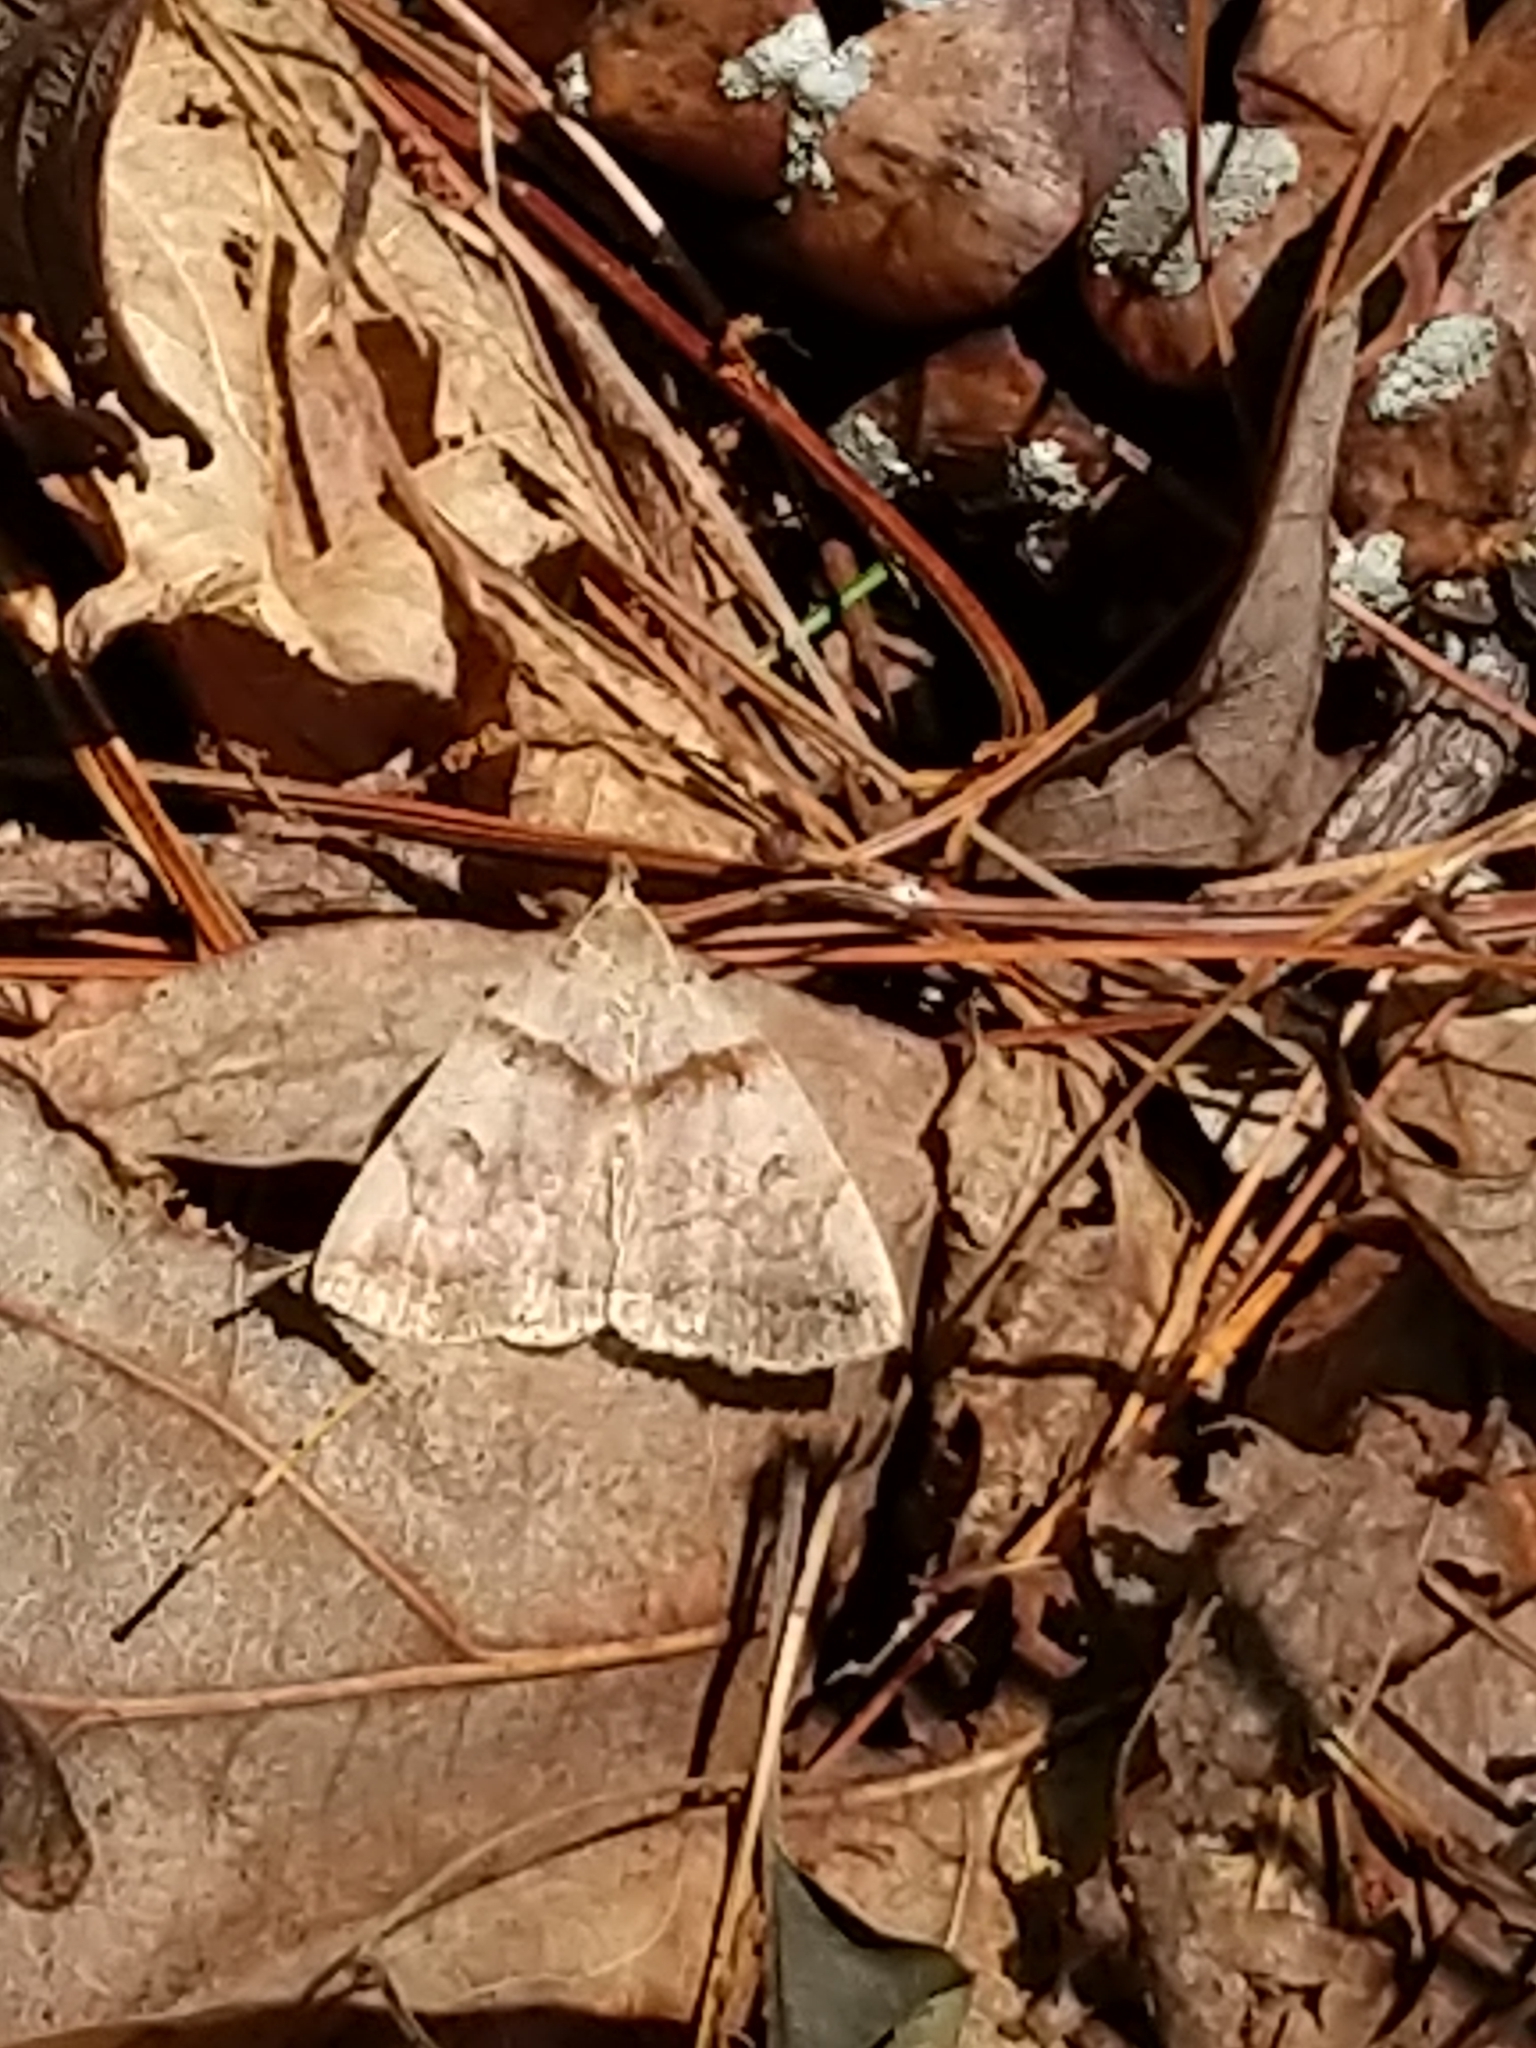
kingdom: Animalia
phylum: Arthropoda
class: Insecta
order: Lepidoptera
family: Erebidae
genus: Zanclognatha
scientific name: Zanclognatha laevigata
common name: Variable fan-foot
